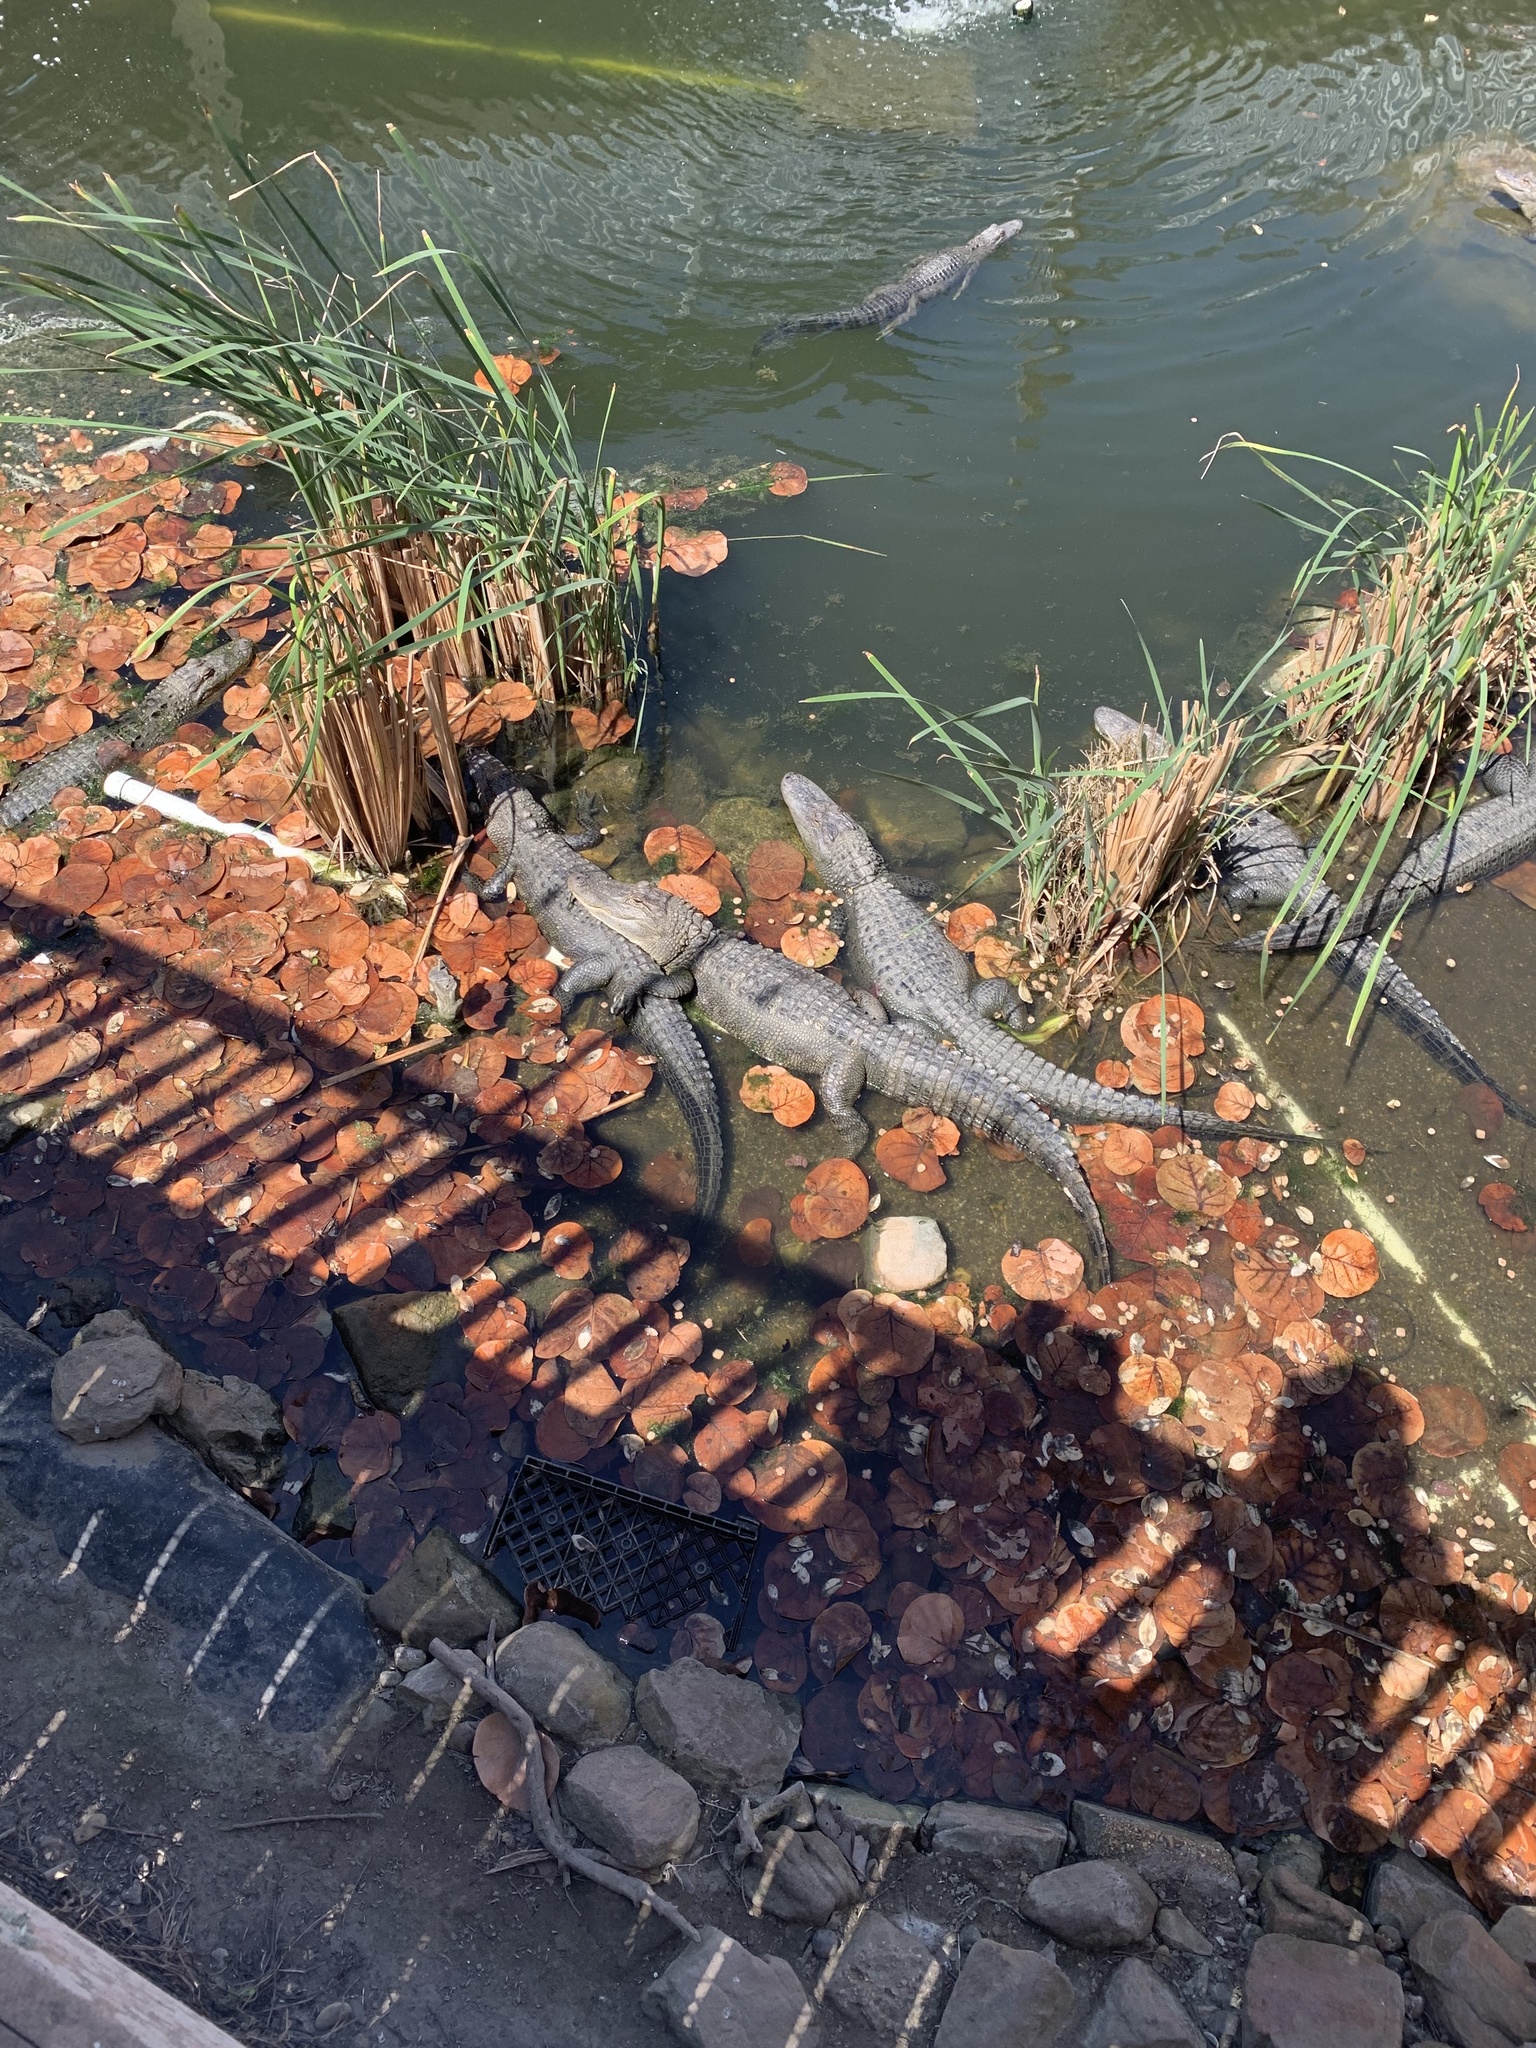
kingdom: Animalia
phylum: Chordata
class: Crocodylia
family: Alligatoridae
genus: Alligator
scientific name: Alligator mississippiensis
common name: American alligator
